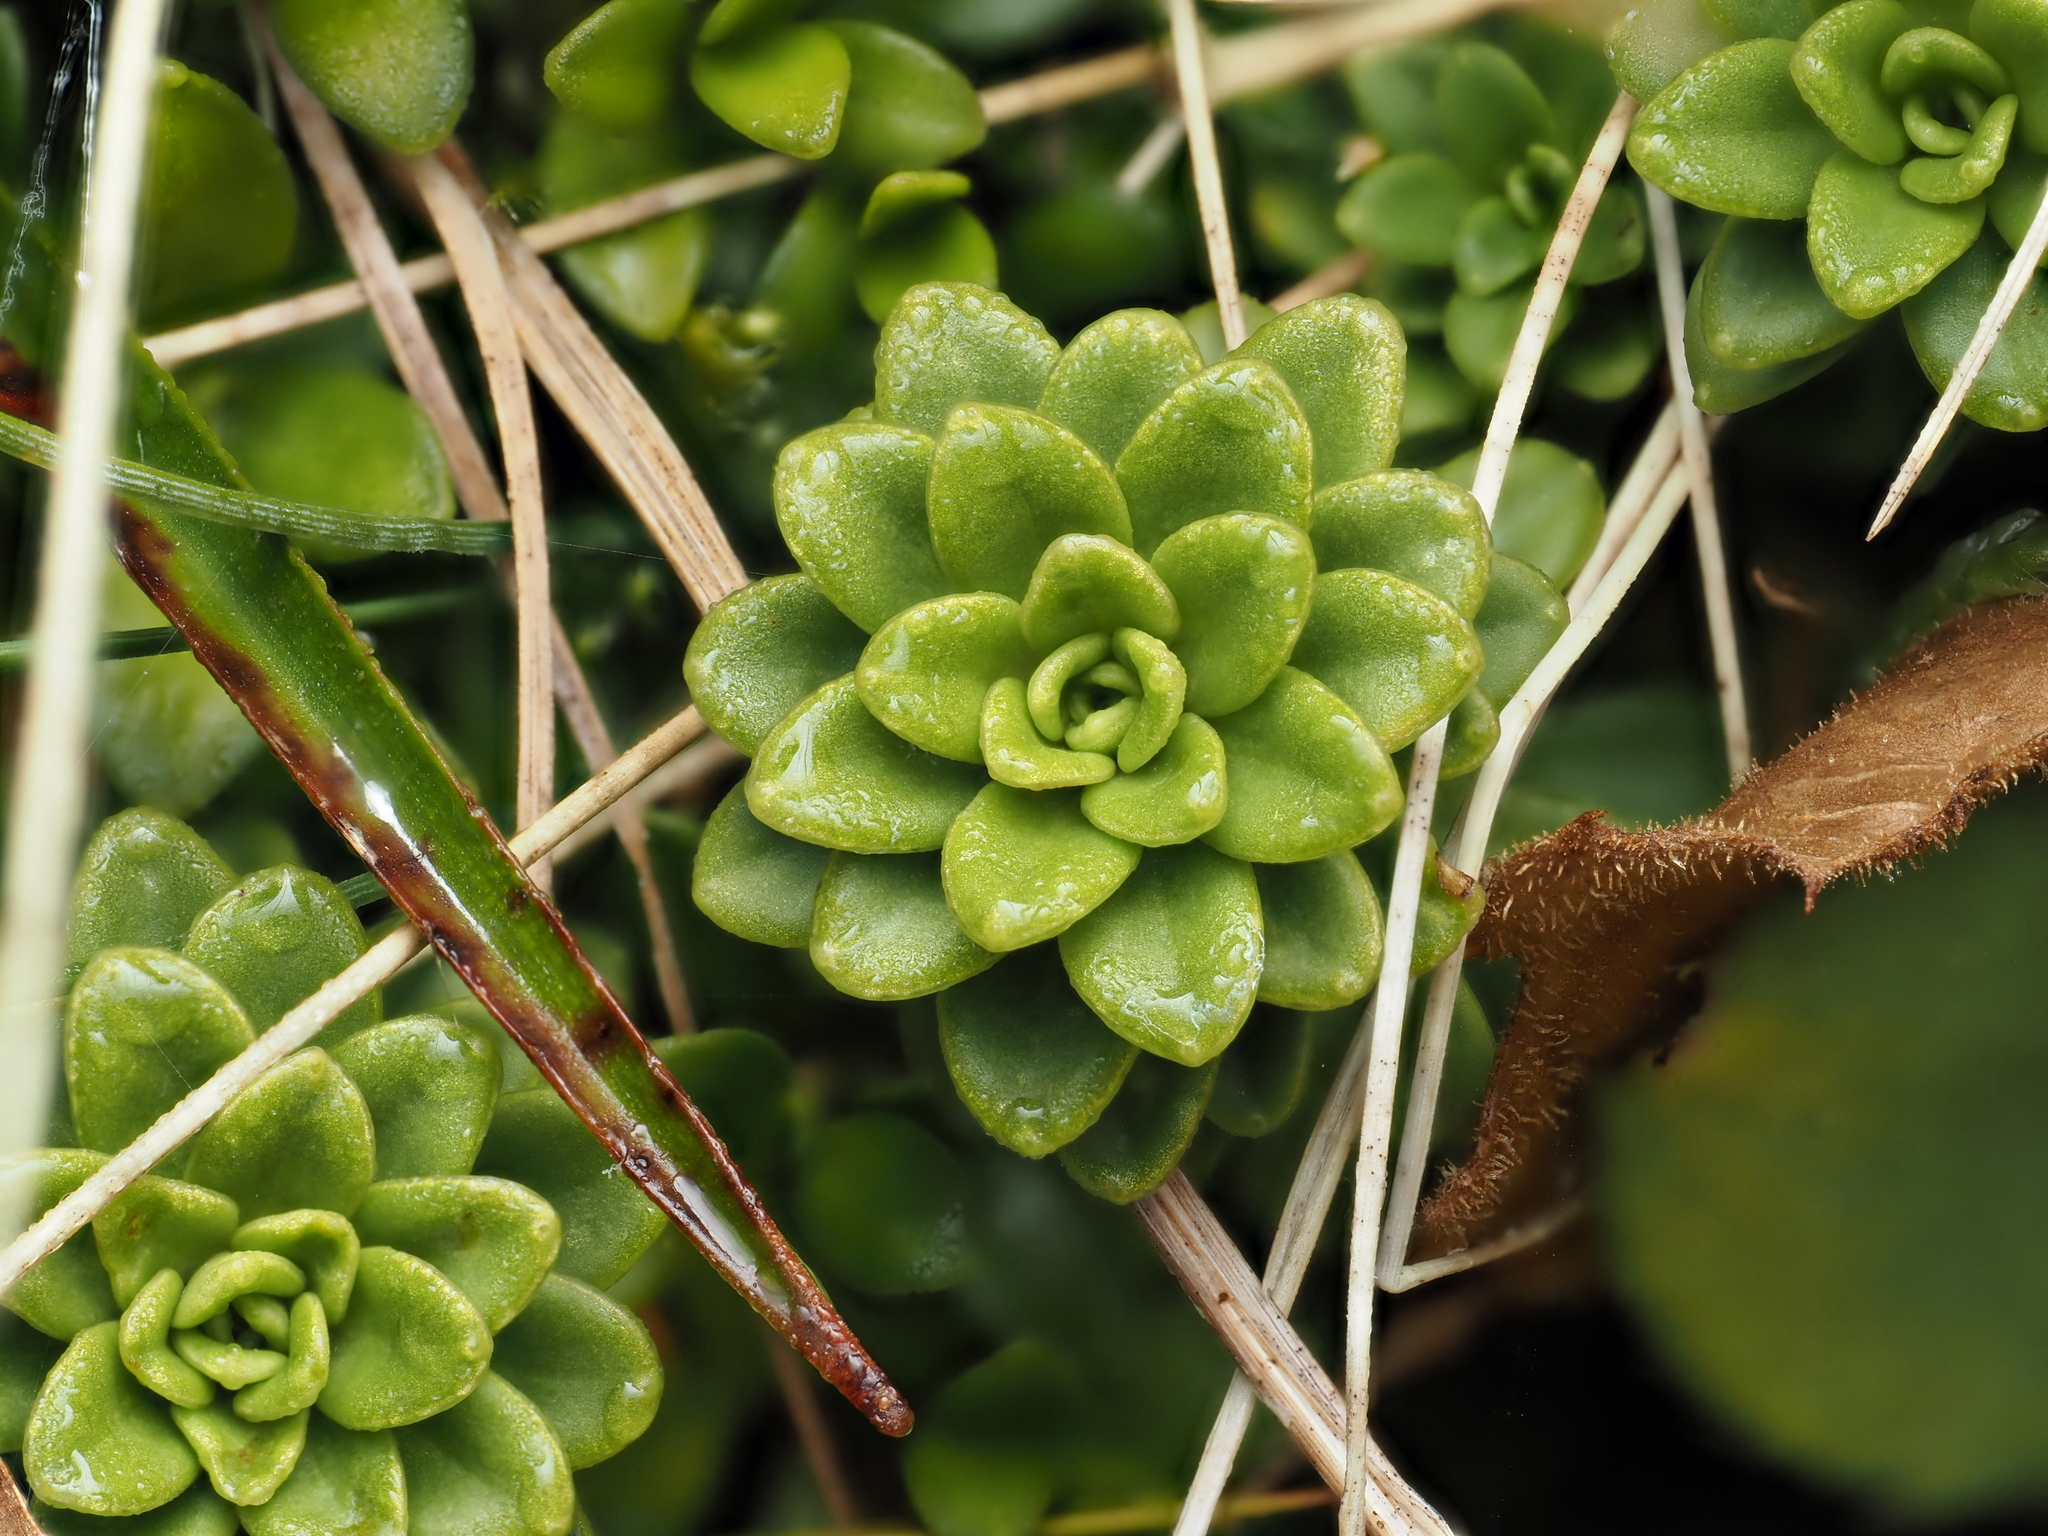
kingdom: Plantae
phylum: Tracheophyta
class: Magnoliopsida
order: Asterales
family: Stylidiaceae
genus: Forstera
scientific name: Forstera tenella
